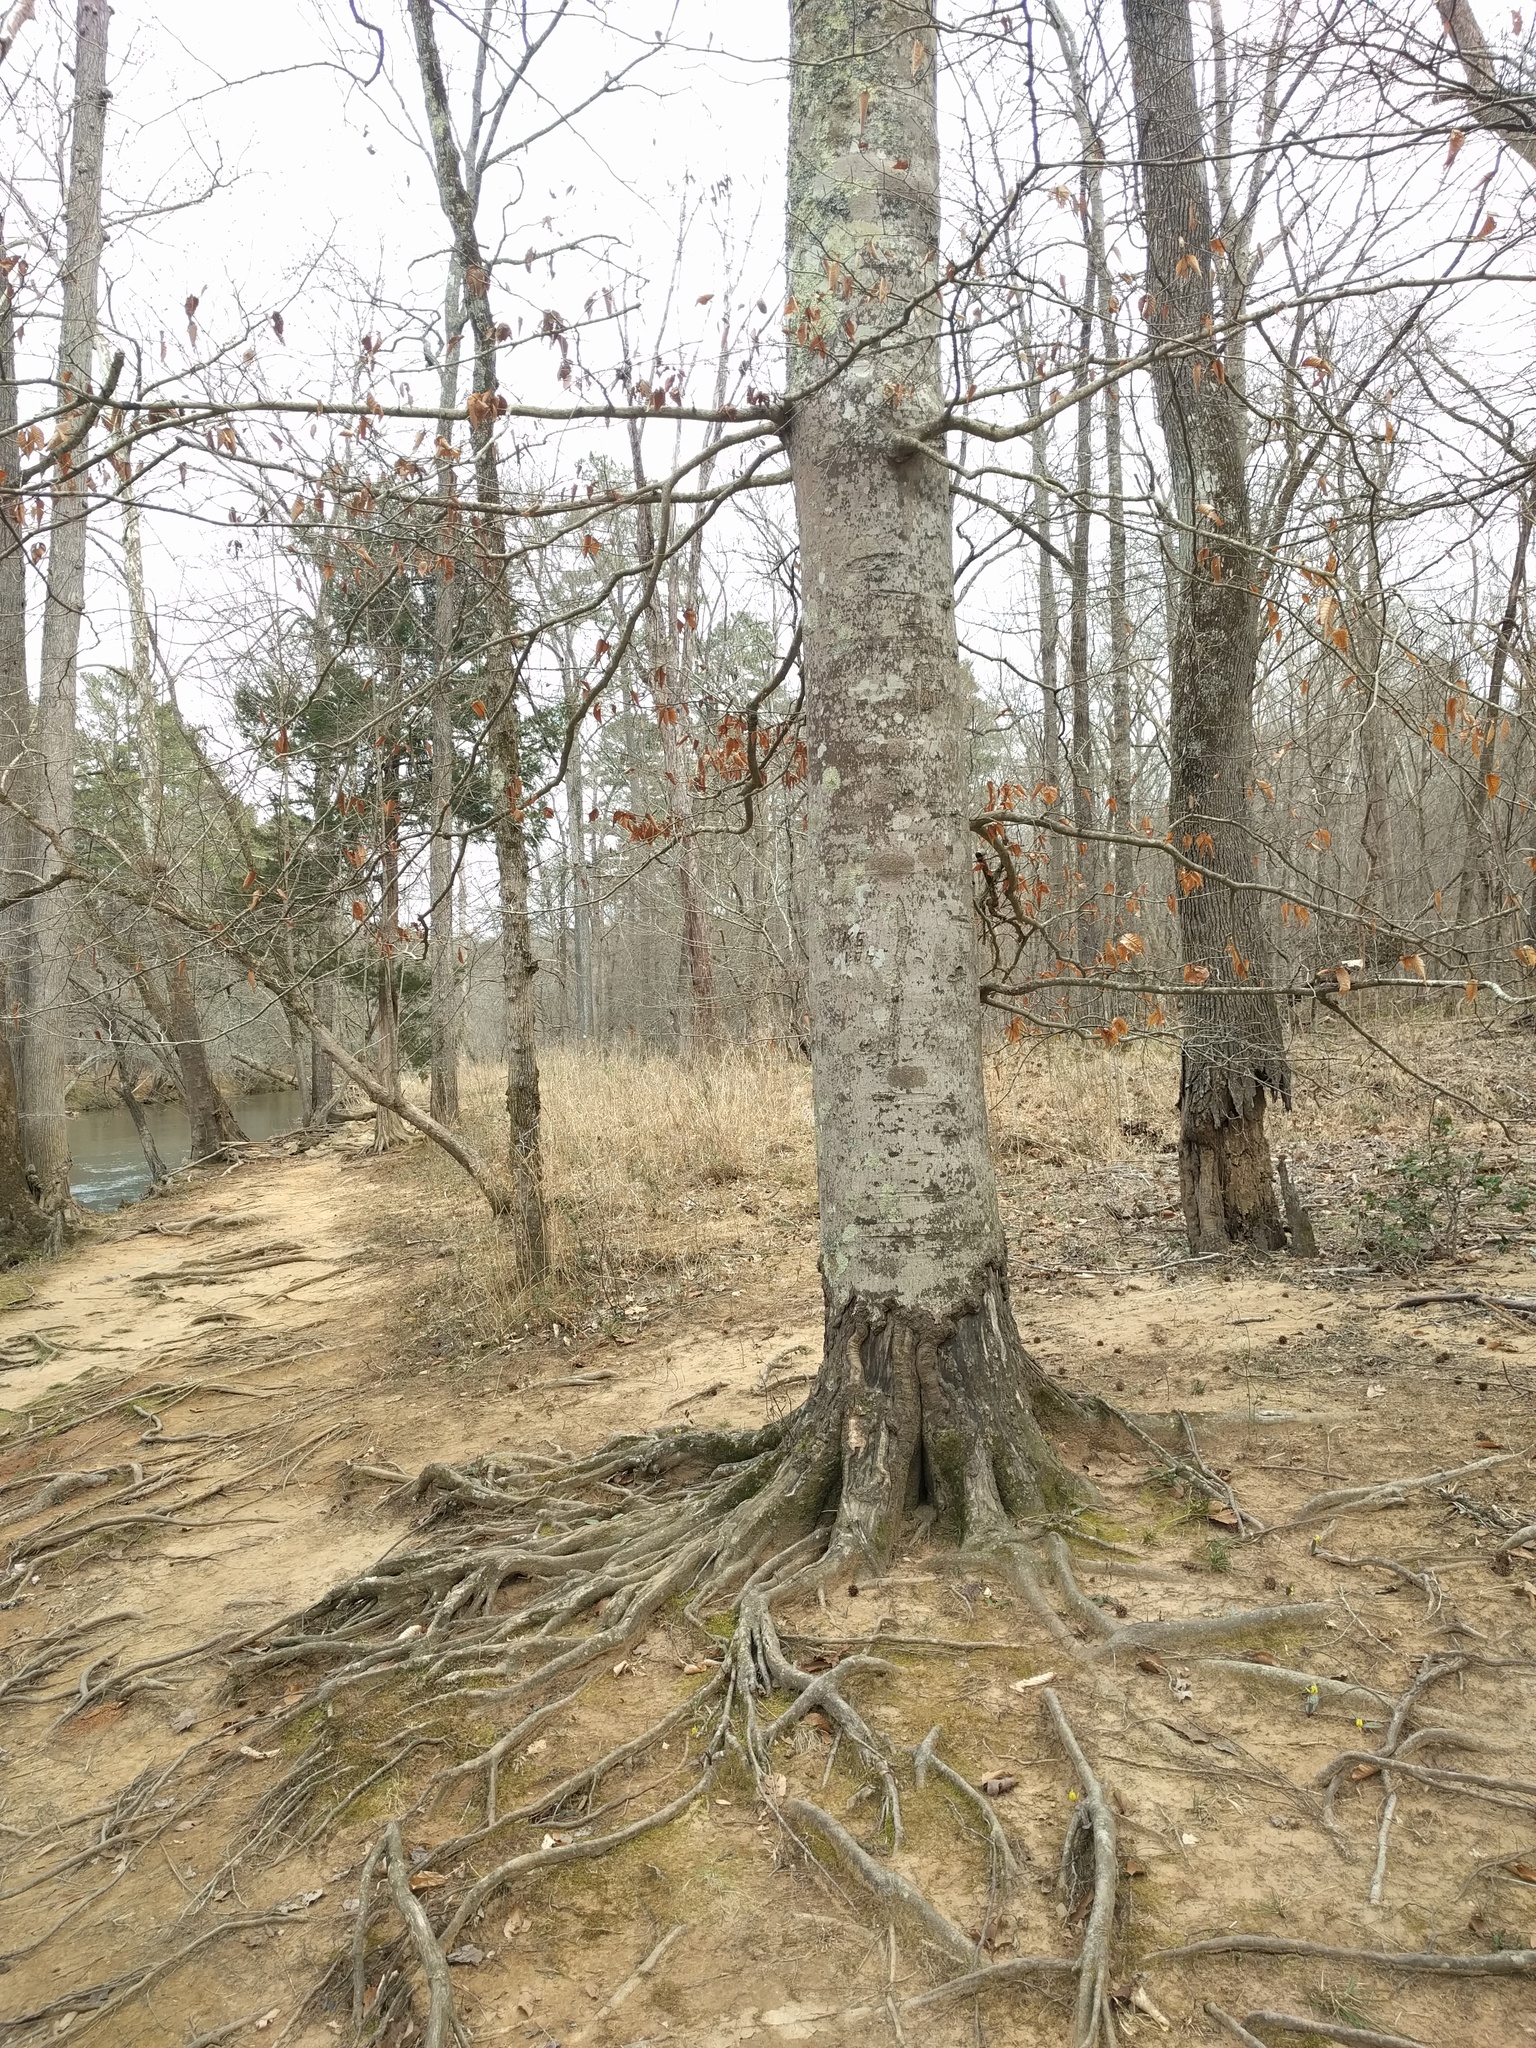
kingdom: Plantae
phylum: Tracheophyta
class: Magnoliopsida
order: Fagales
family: Fagaceae
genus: Fagus
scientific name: Fagus grandifolia
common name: American beech
